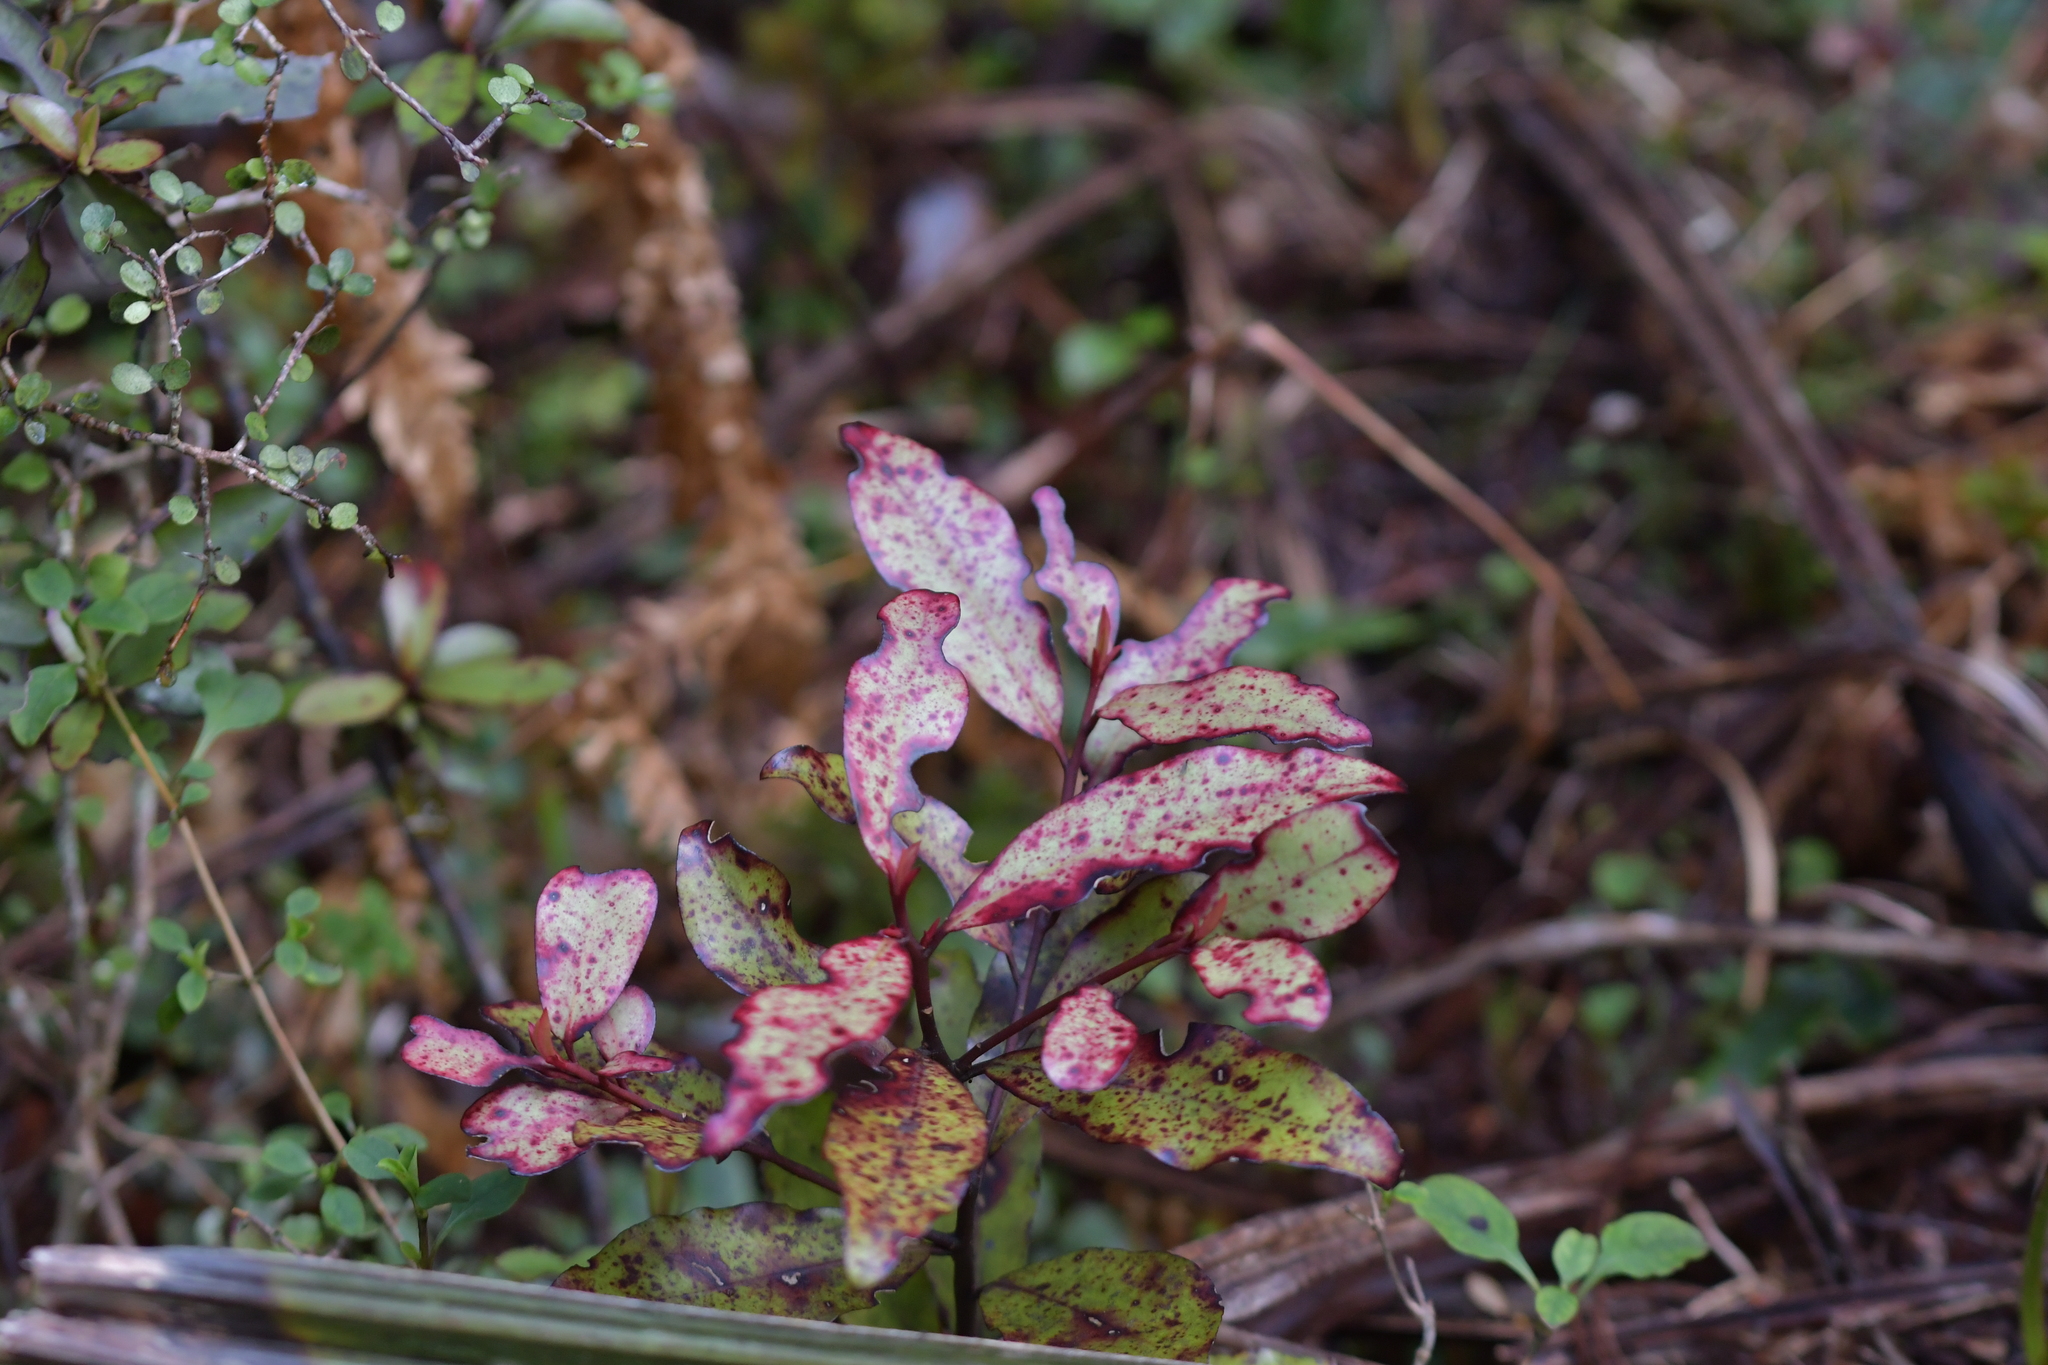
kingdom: Plantae
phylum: Tracheophyta
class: Magnoliopsida
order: Canellales
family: Winteraceae
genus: Pseudowintera
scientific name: Pseudowintera colorata
